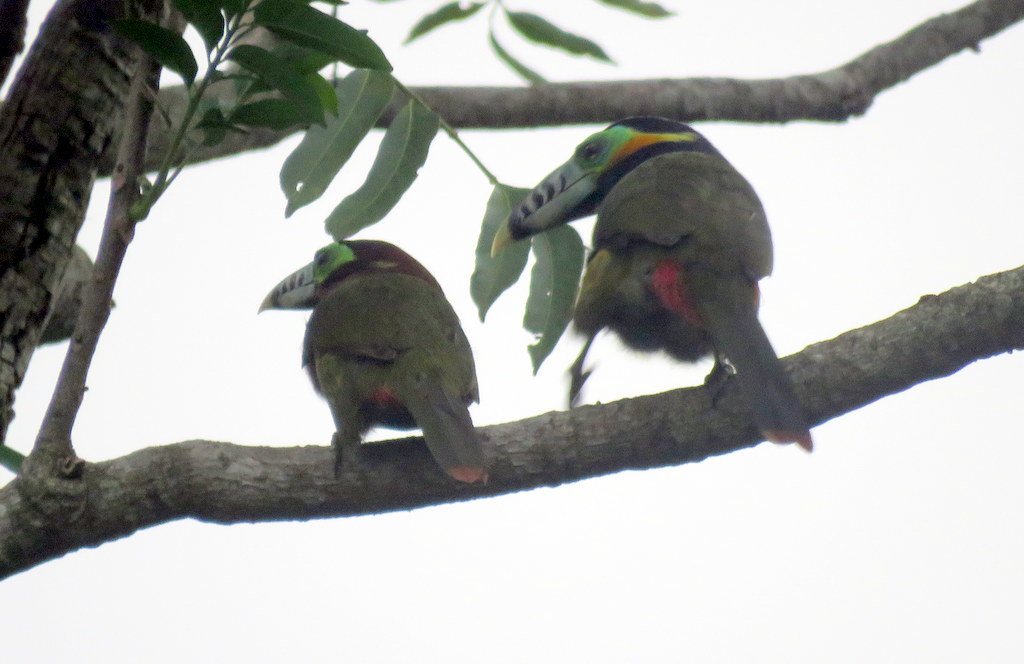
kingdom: Animalia
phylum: Chordata
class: Aves
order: Piciformes
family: Ramphastidae
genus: Selenidera
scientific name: Selenidera maculirostris
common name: Spot-billed toucanet
